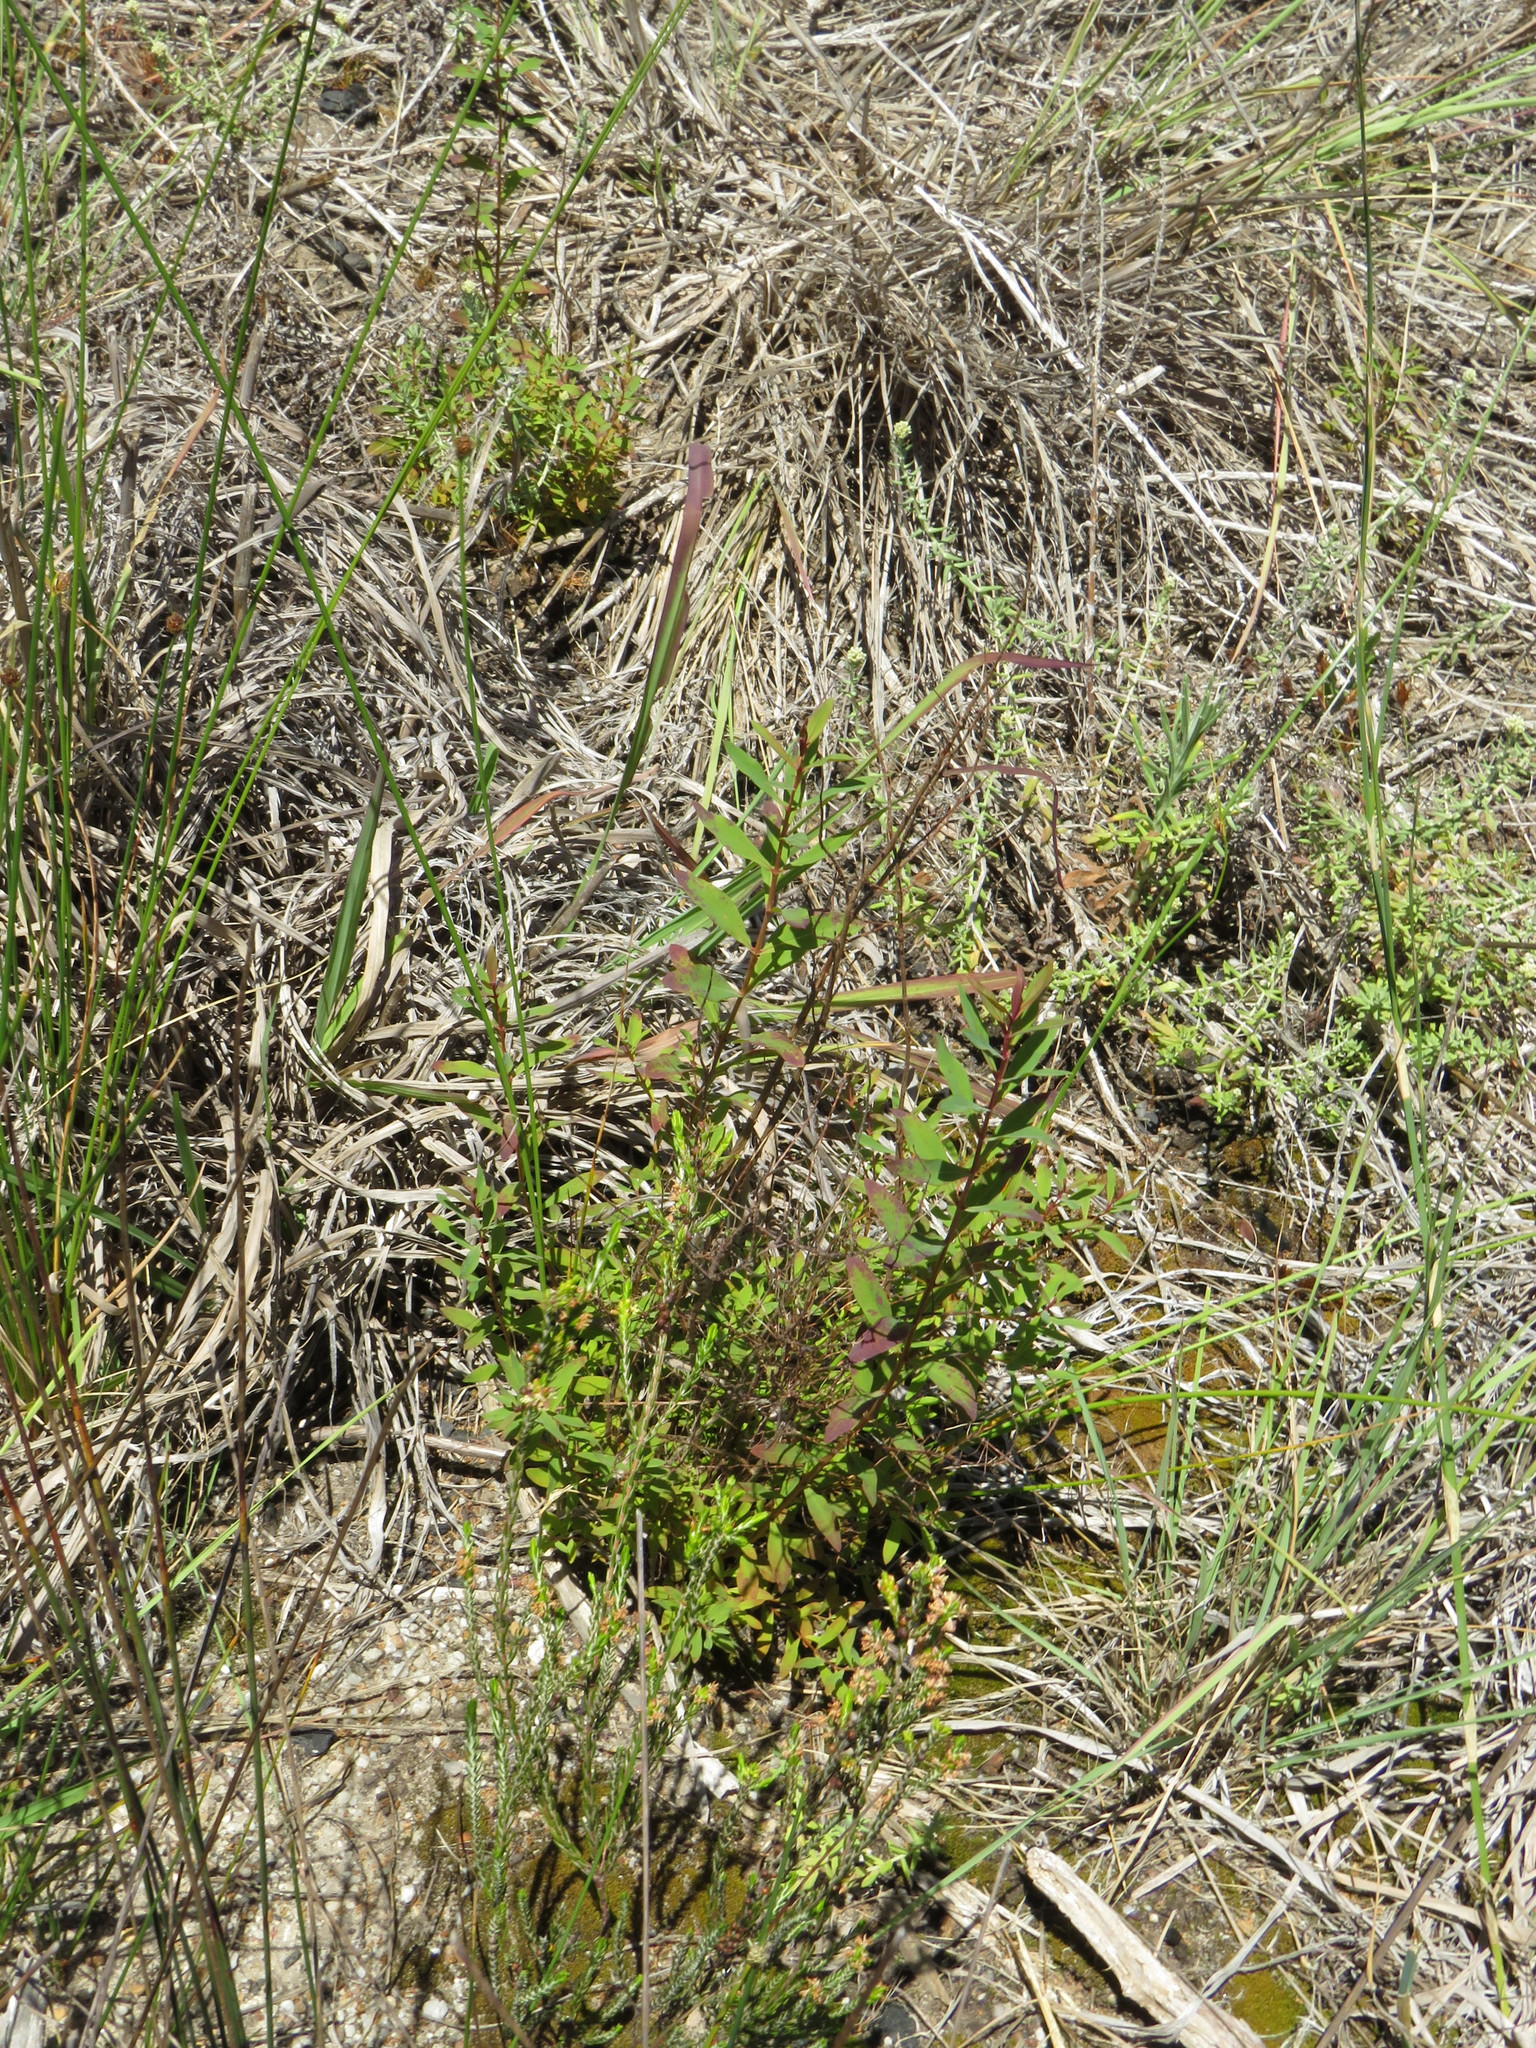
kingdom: Plantae
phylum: Tracheophyta
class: Magnoliopsida
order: Malpighiales
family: Hypericaceae
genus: Hypericum
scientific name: Hypericum canariense
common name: Canary island st. johnswort
